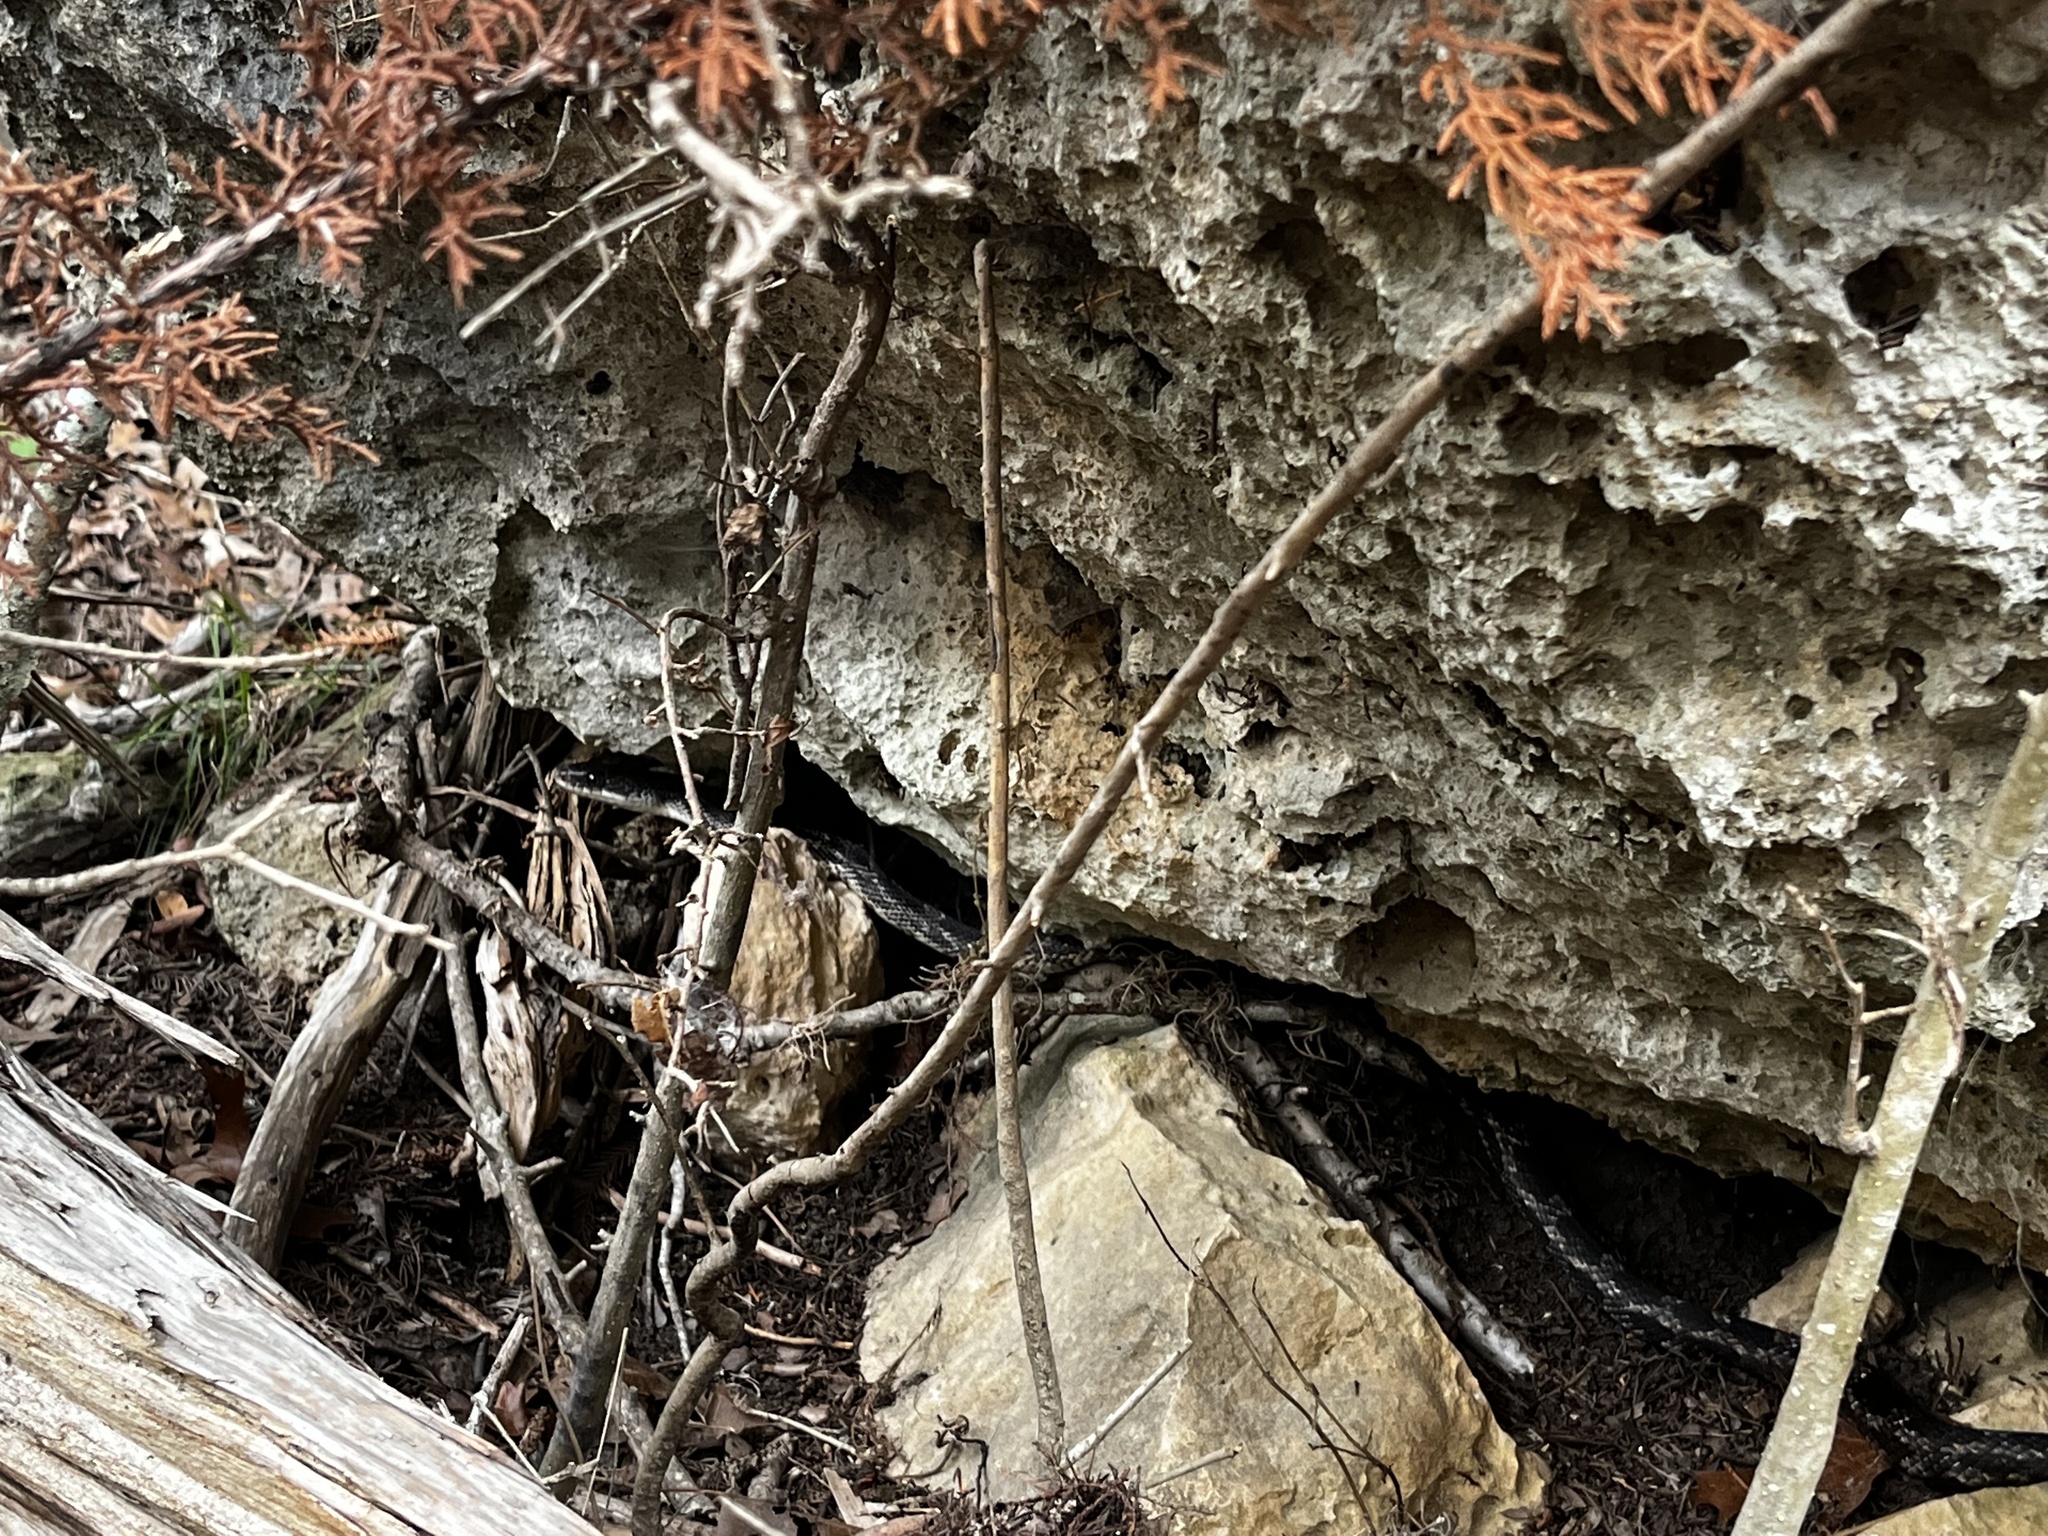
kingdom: Animalia
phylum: Chordata
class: Squamata
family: Colubridae
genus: Pantherophis
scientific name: Pantherophis obsoletus
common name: Black rat snake
